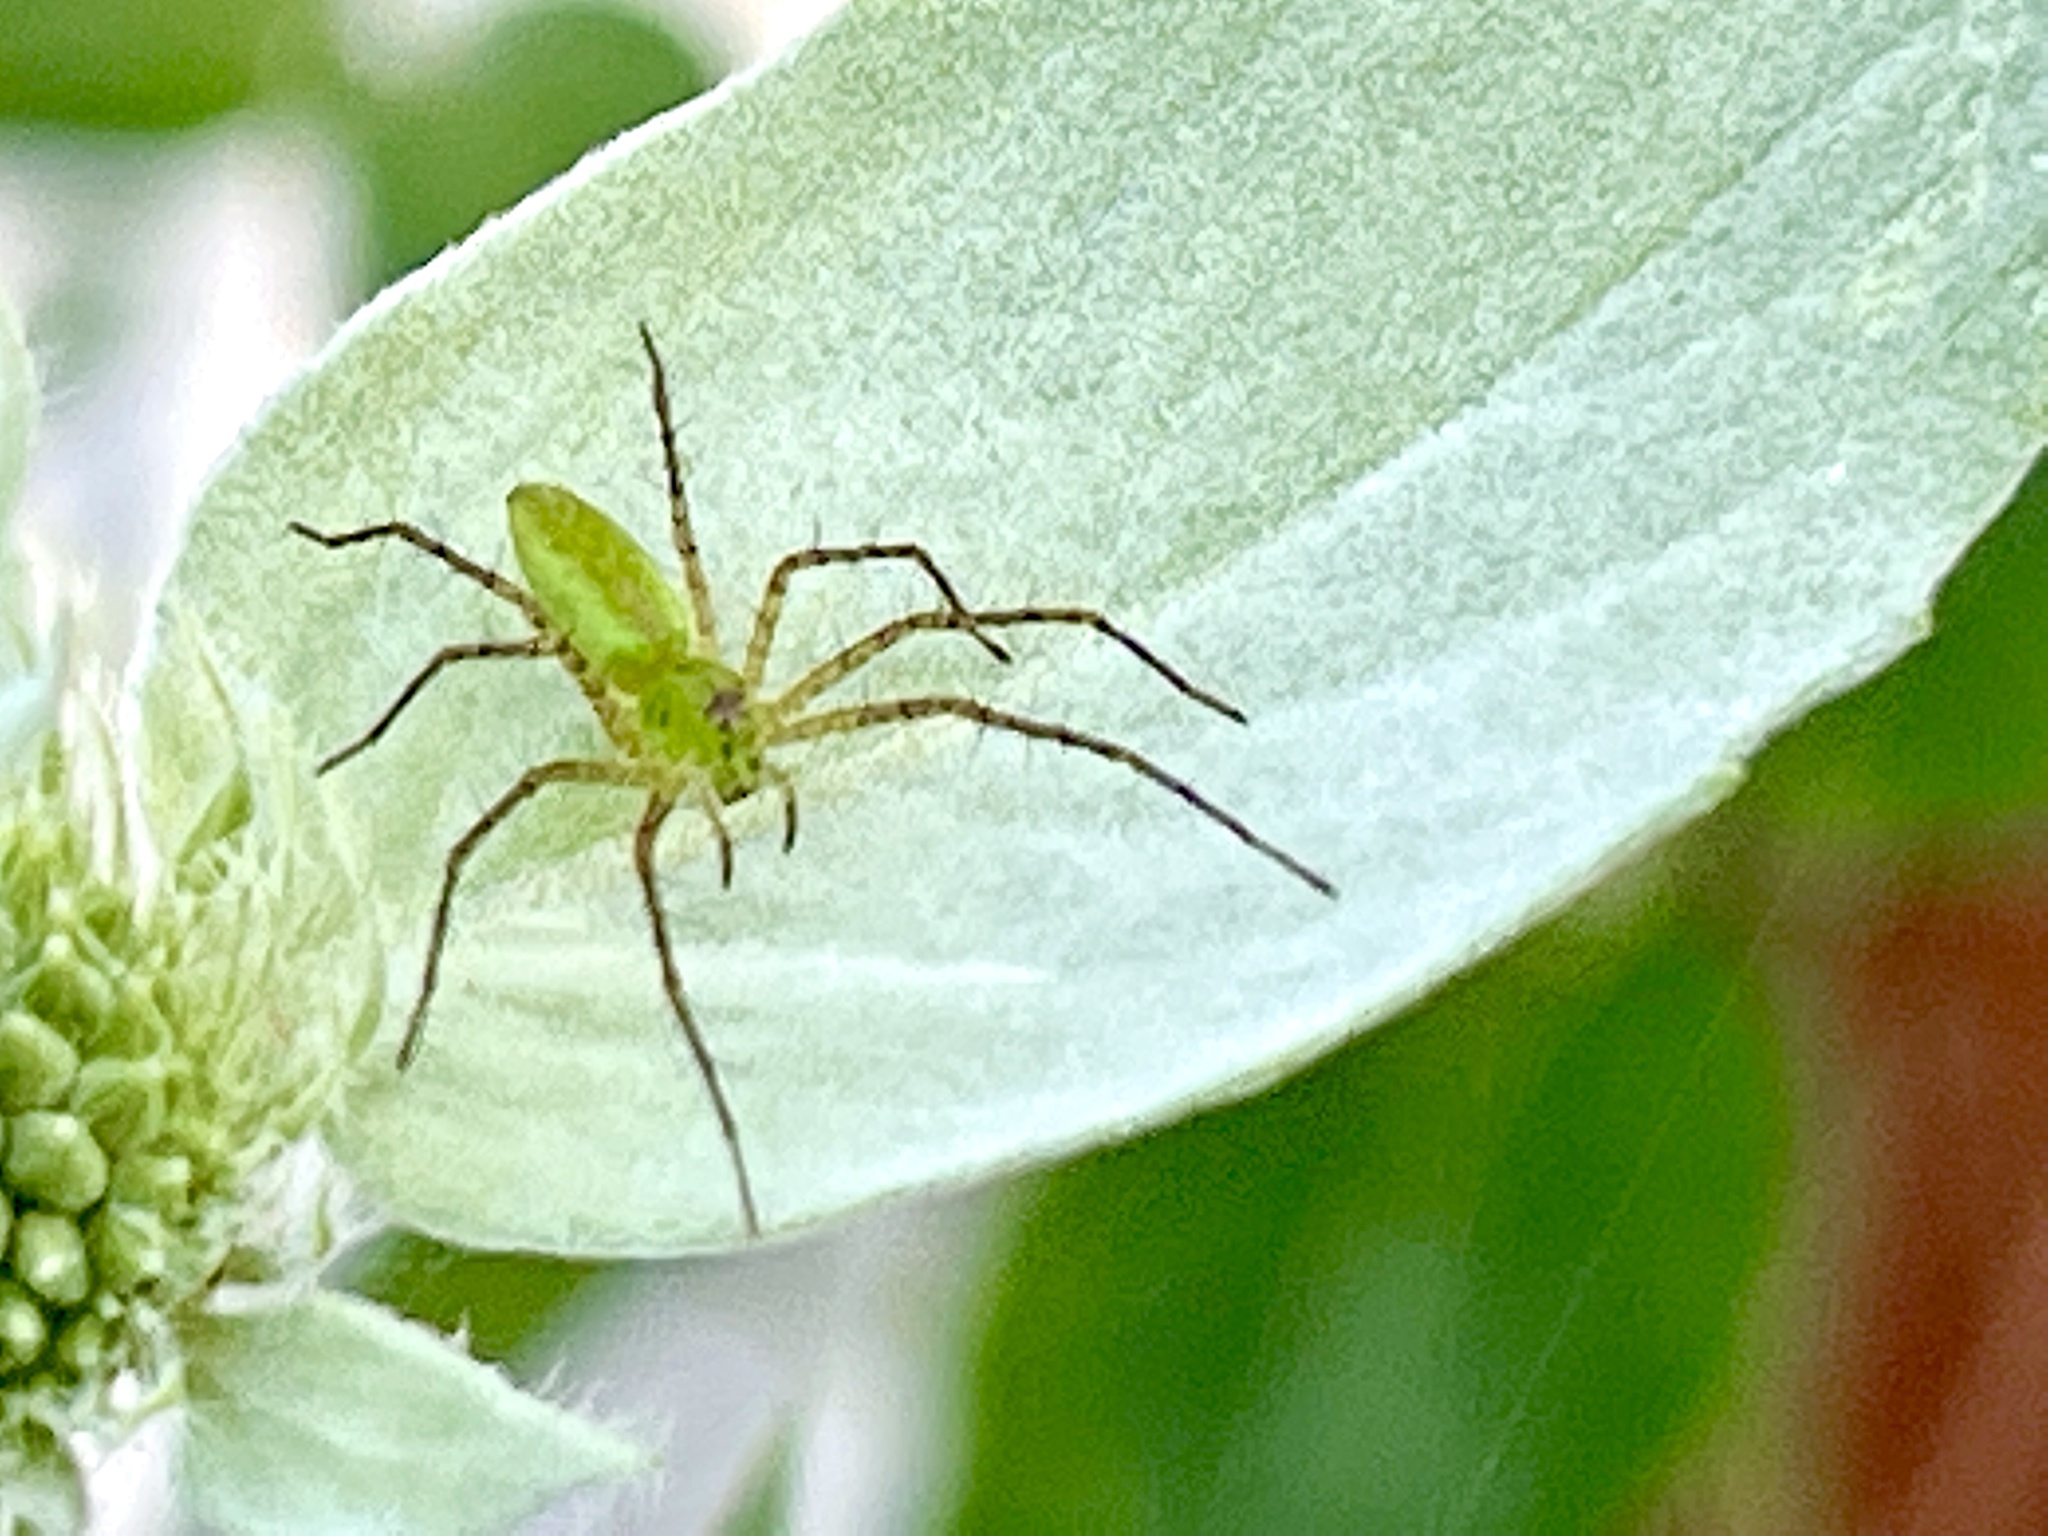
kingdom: Animalia
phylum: Arthropoda
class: Arachnida
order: Araneae
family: Oxyopidae
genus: Peucetia
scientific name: Peucetia viridans
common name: Lynx spiders
